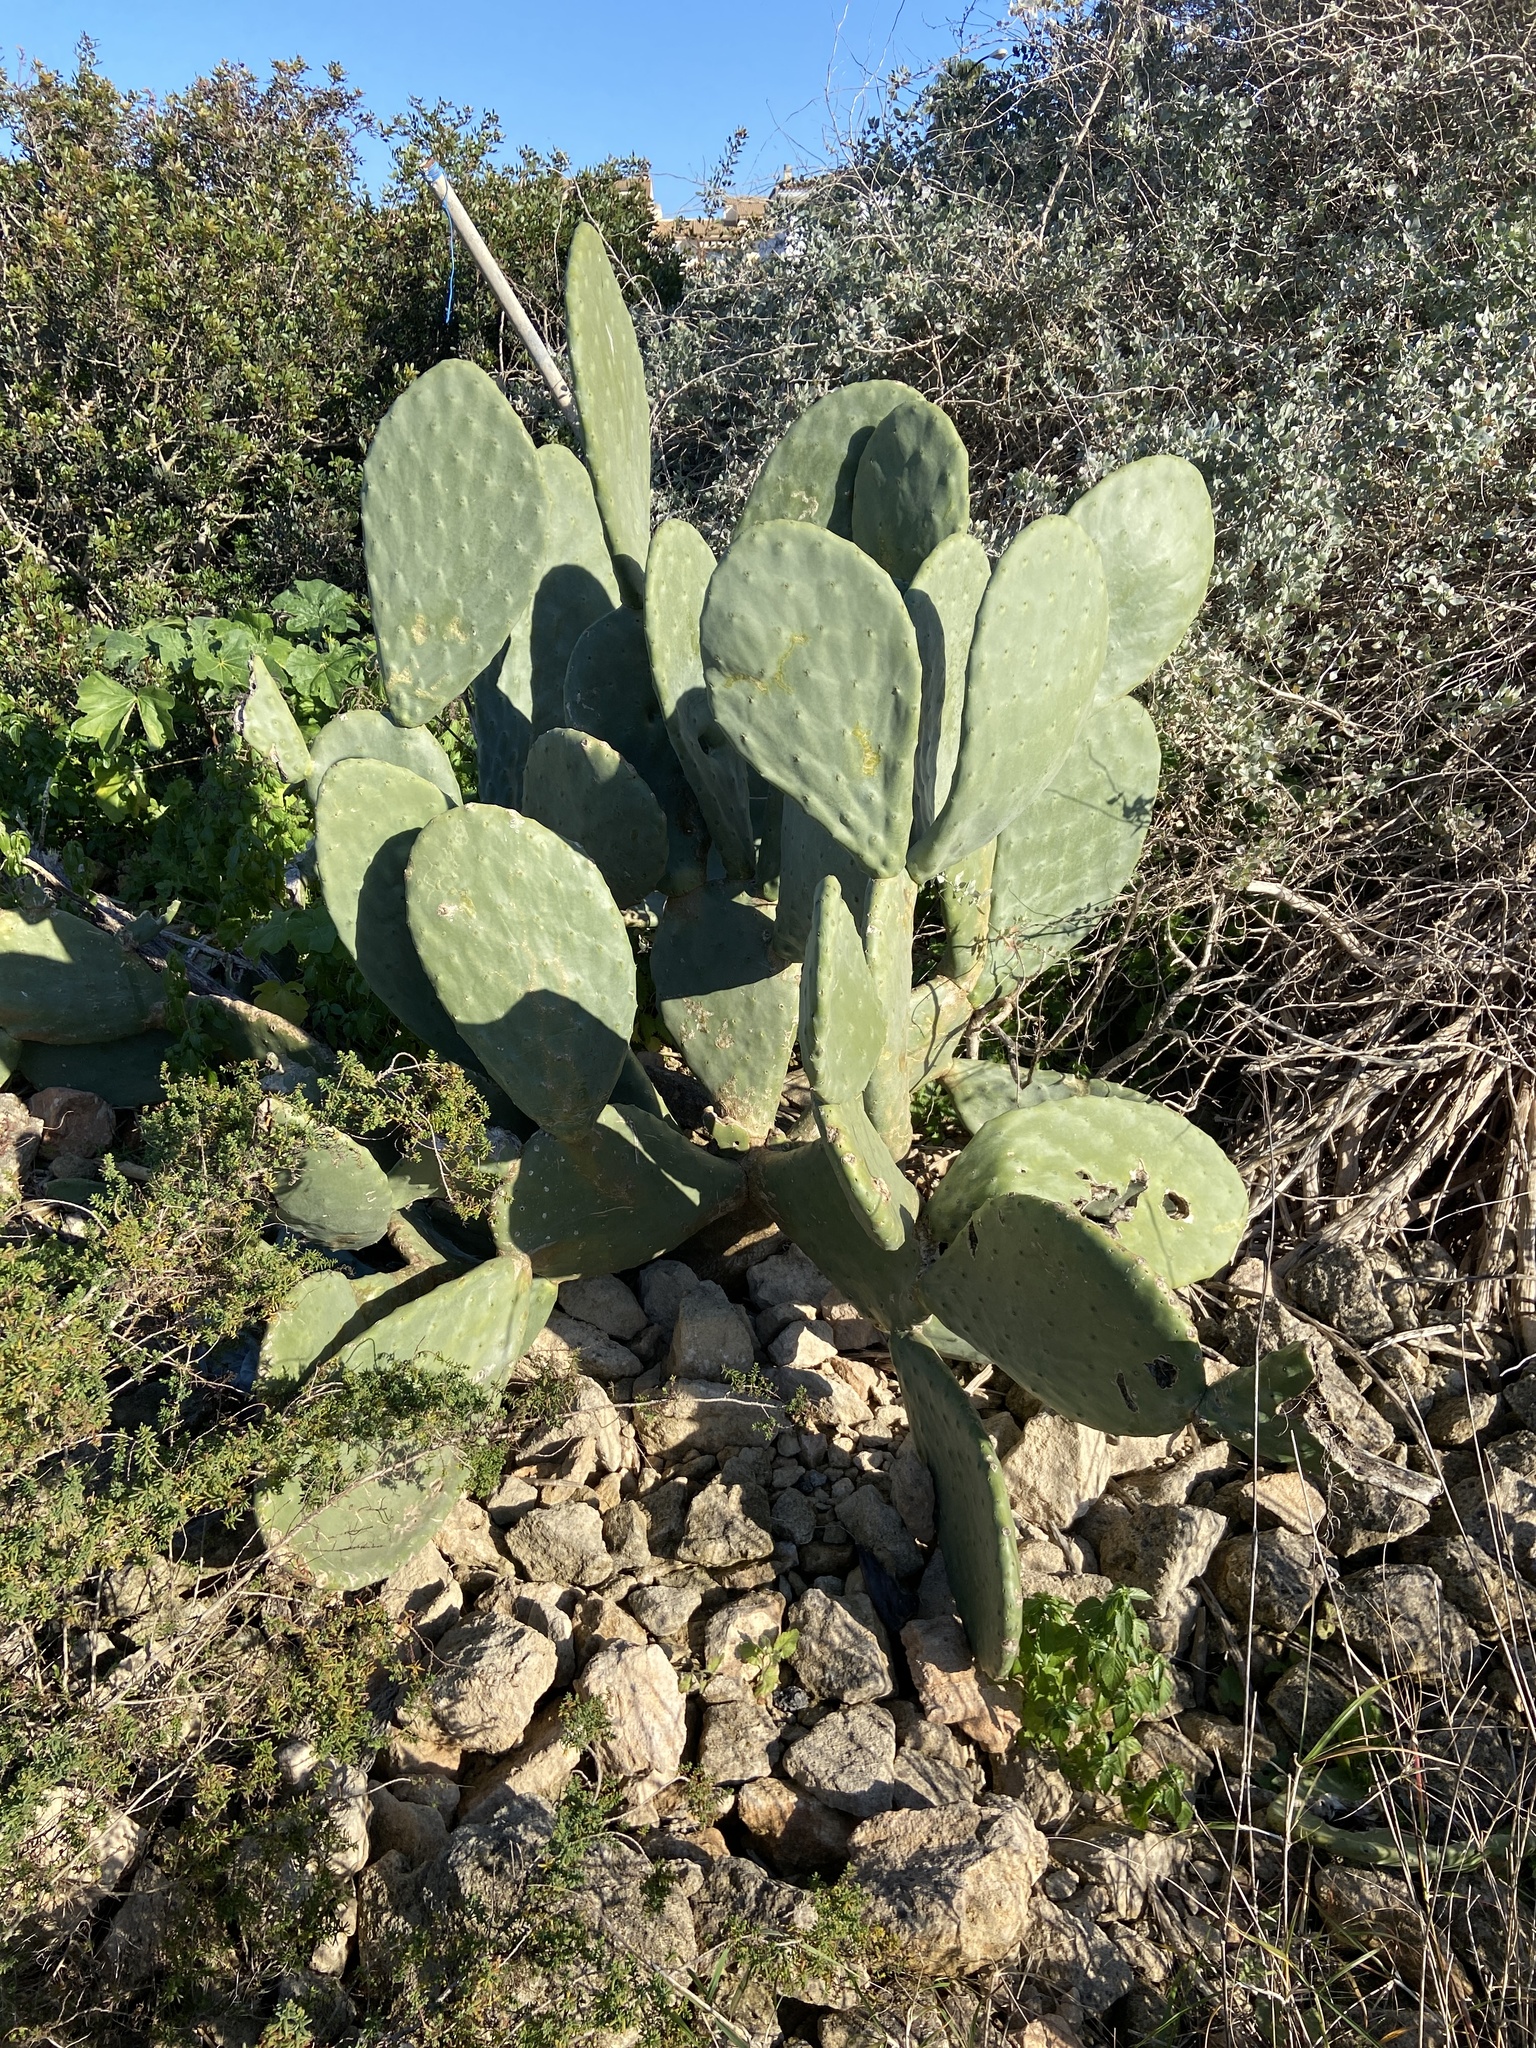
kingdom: Plantae
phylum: Tracheophyta
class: Magnoliopsida
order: Caryophyllales
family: Cactaceae
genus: Opuntia
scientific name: Opuntia ficus-indica
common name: Barbary fig
